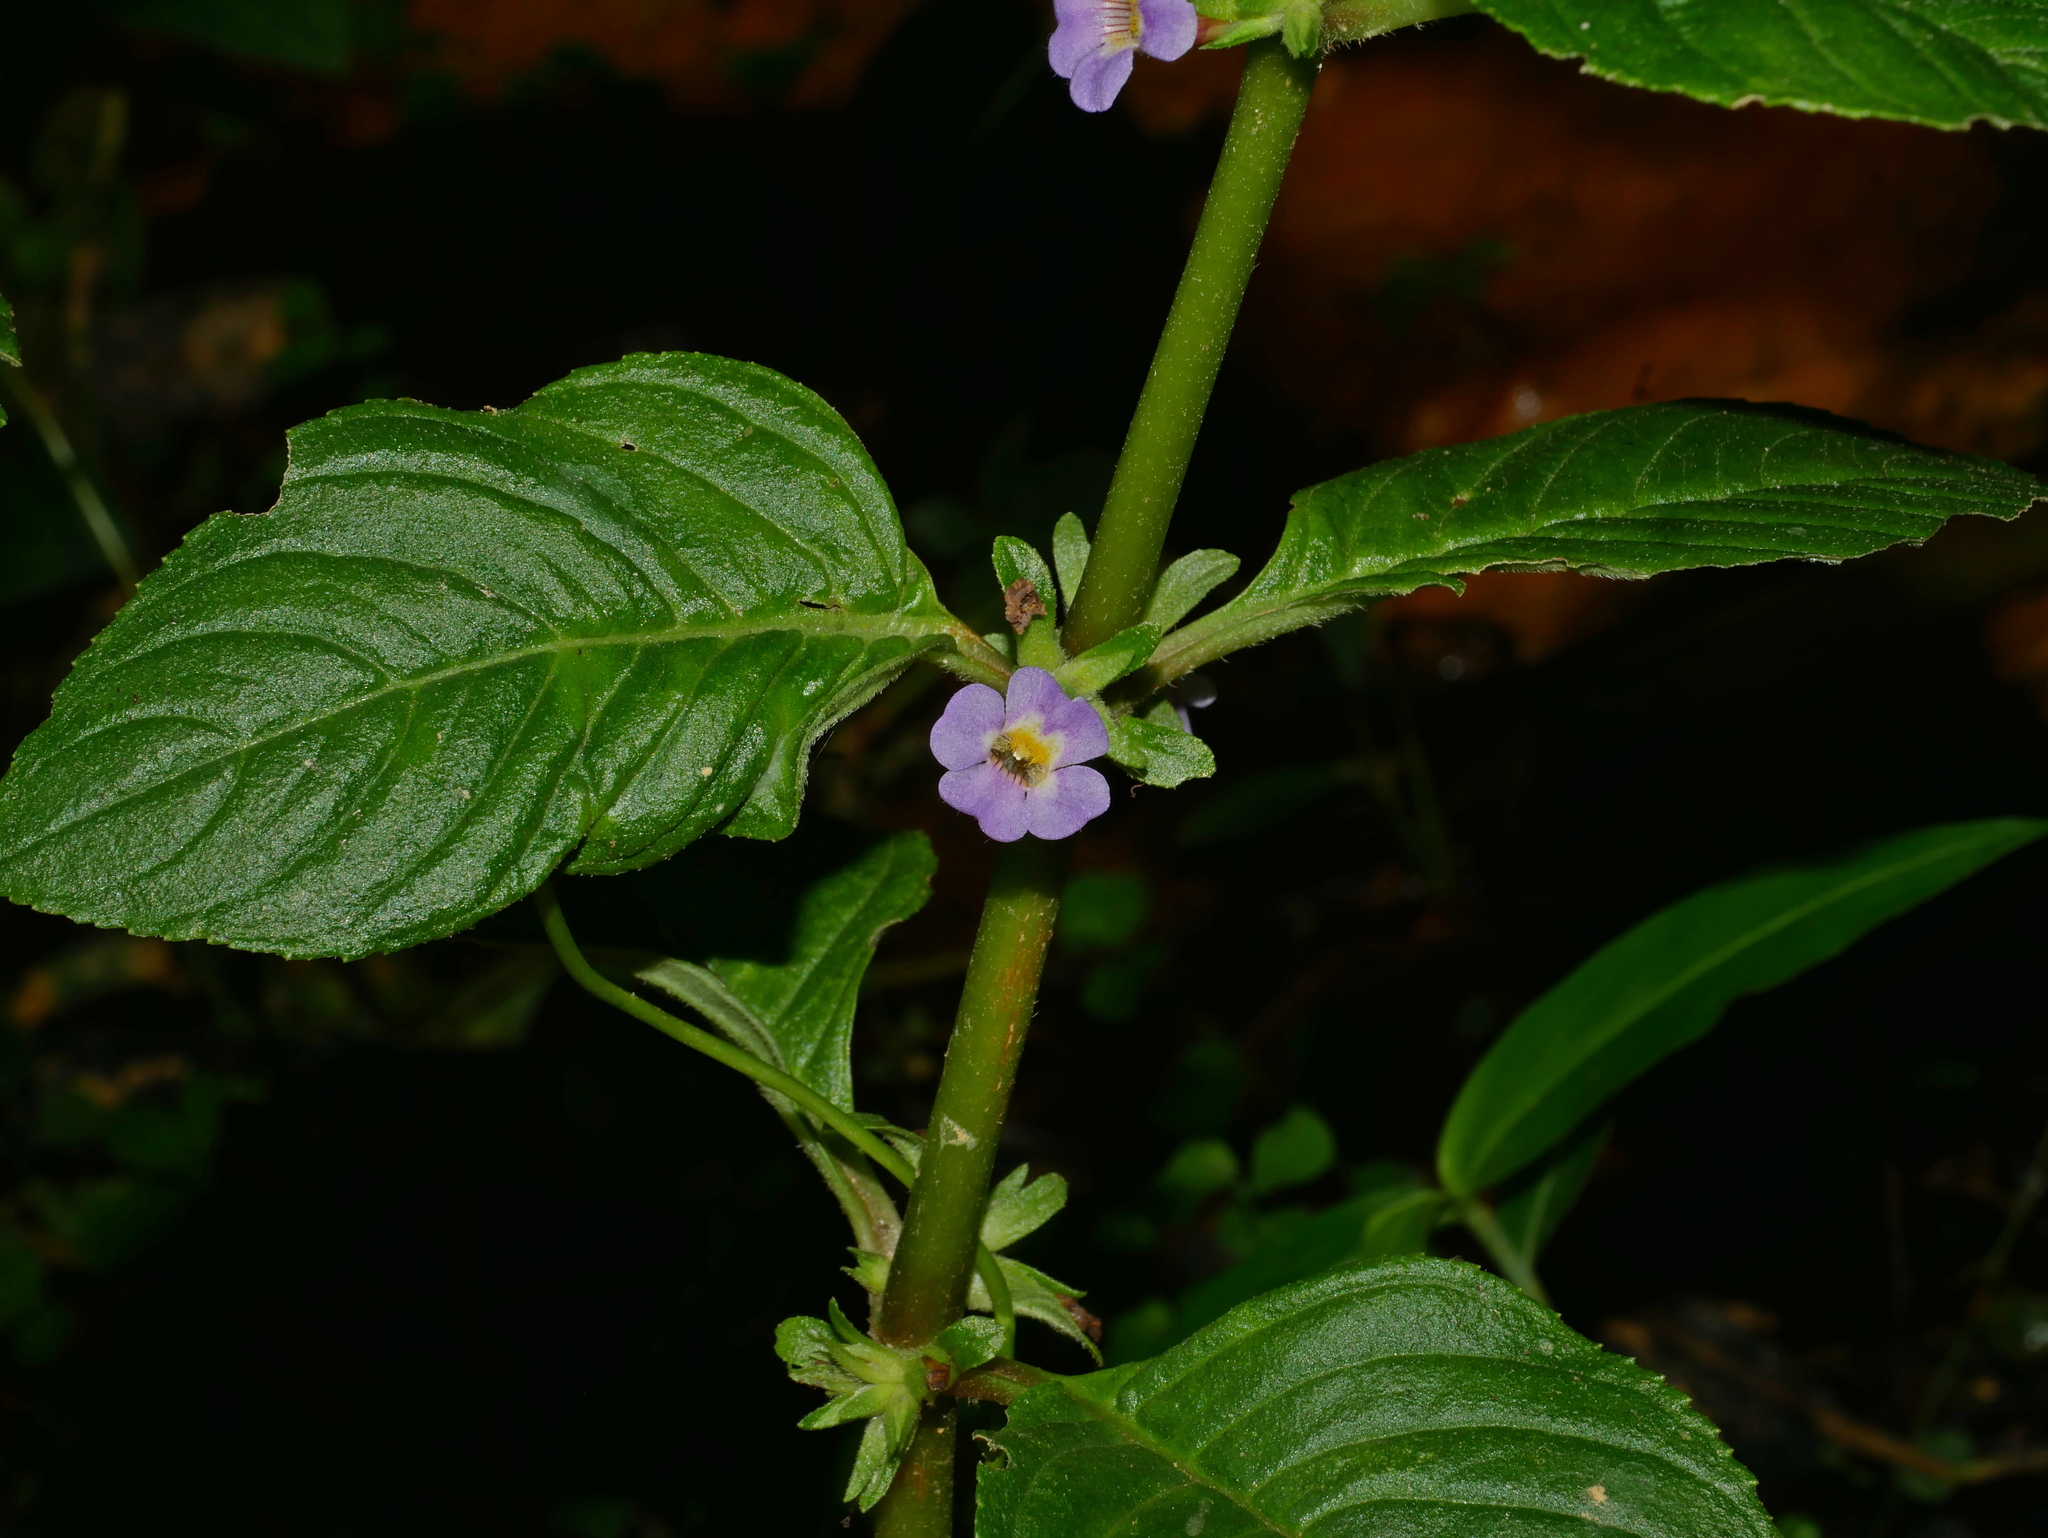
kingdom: Plantae
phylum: Tracheophyta
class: Magnoliopsida
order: Lamiales
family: Plantaginaceae
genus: Limnophila
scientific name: Limnophila rugosa
